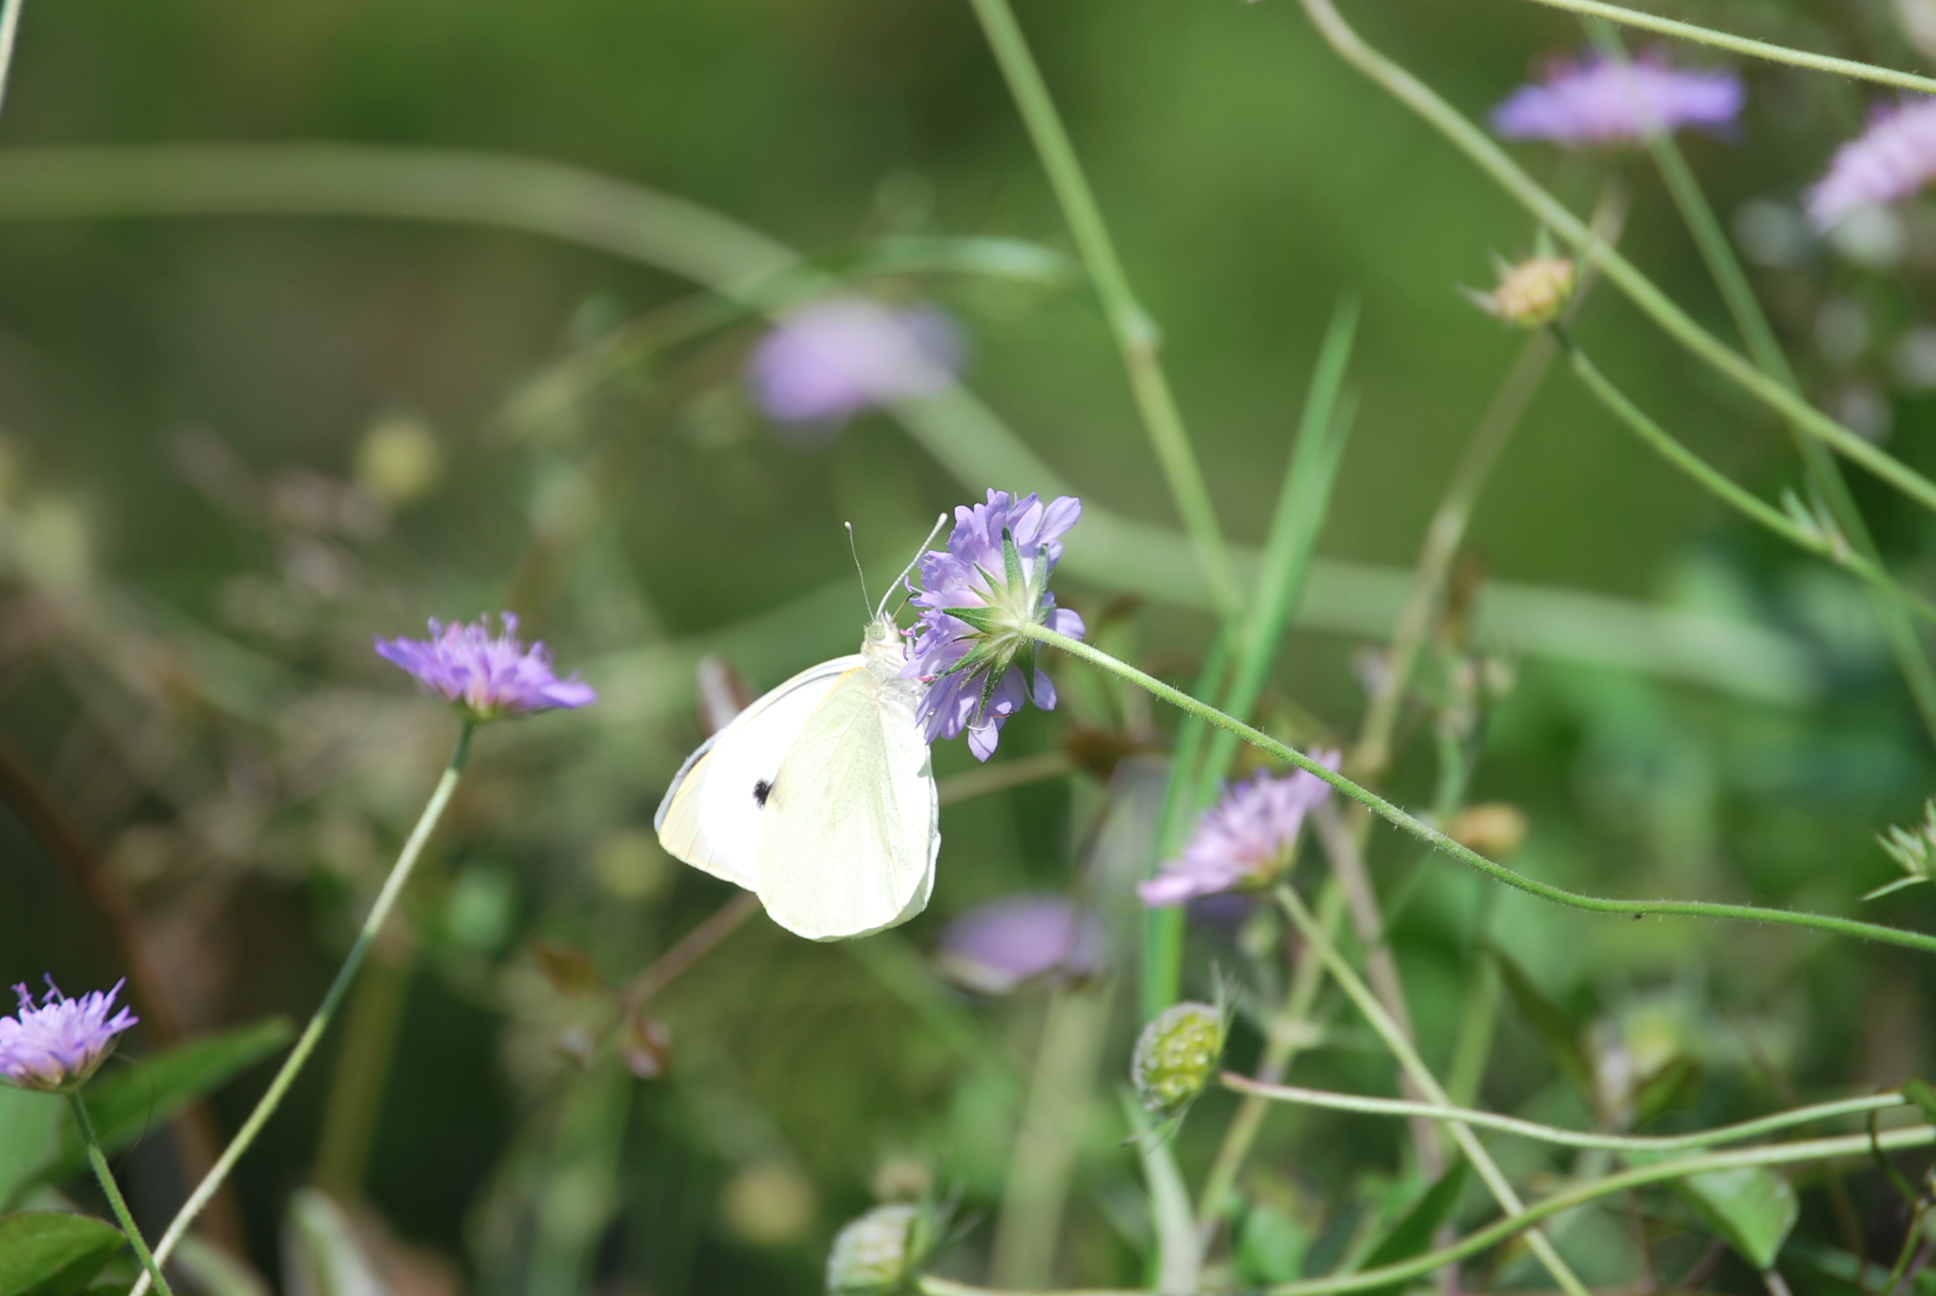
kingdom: Animalia
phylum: Arthropoda
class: Insecta
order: Lepidoptera
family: Pieridae
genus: Pieris
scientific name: Pieris rapae
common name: Small white
